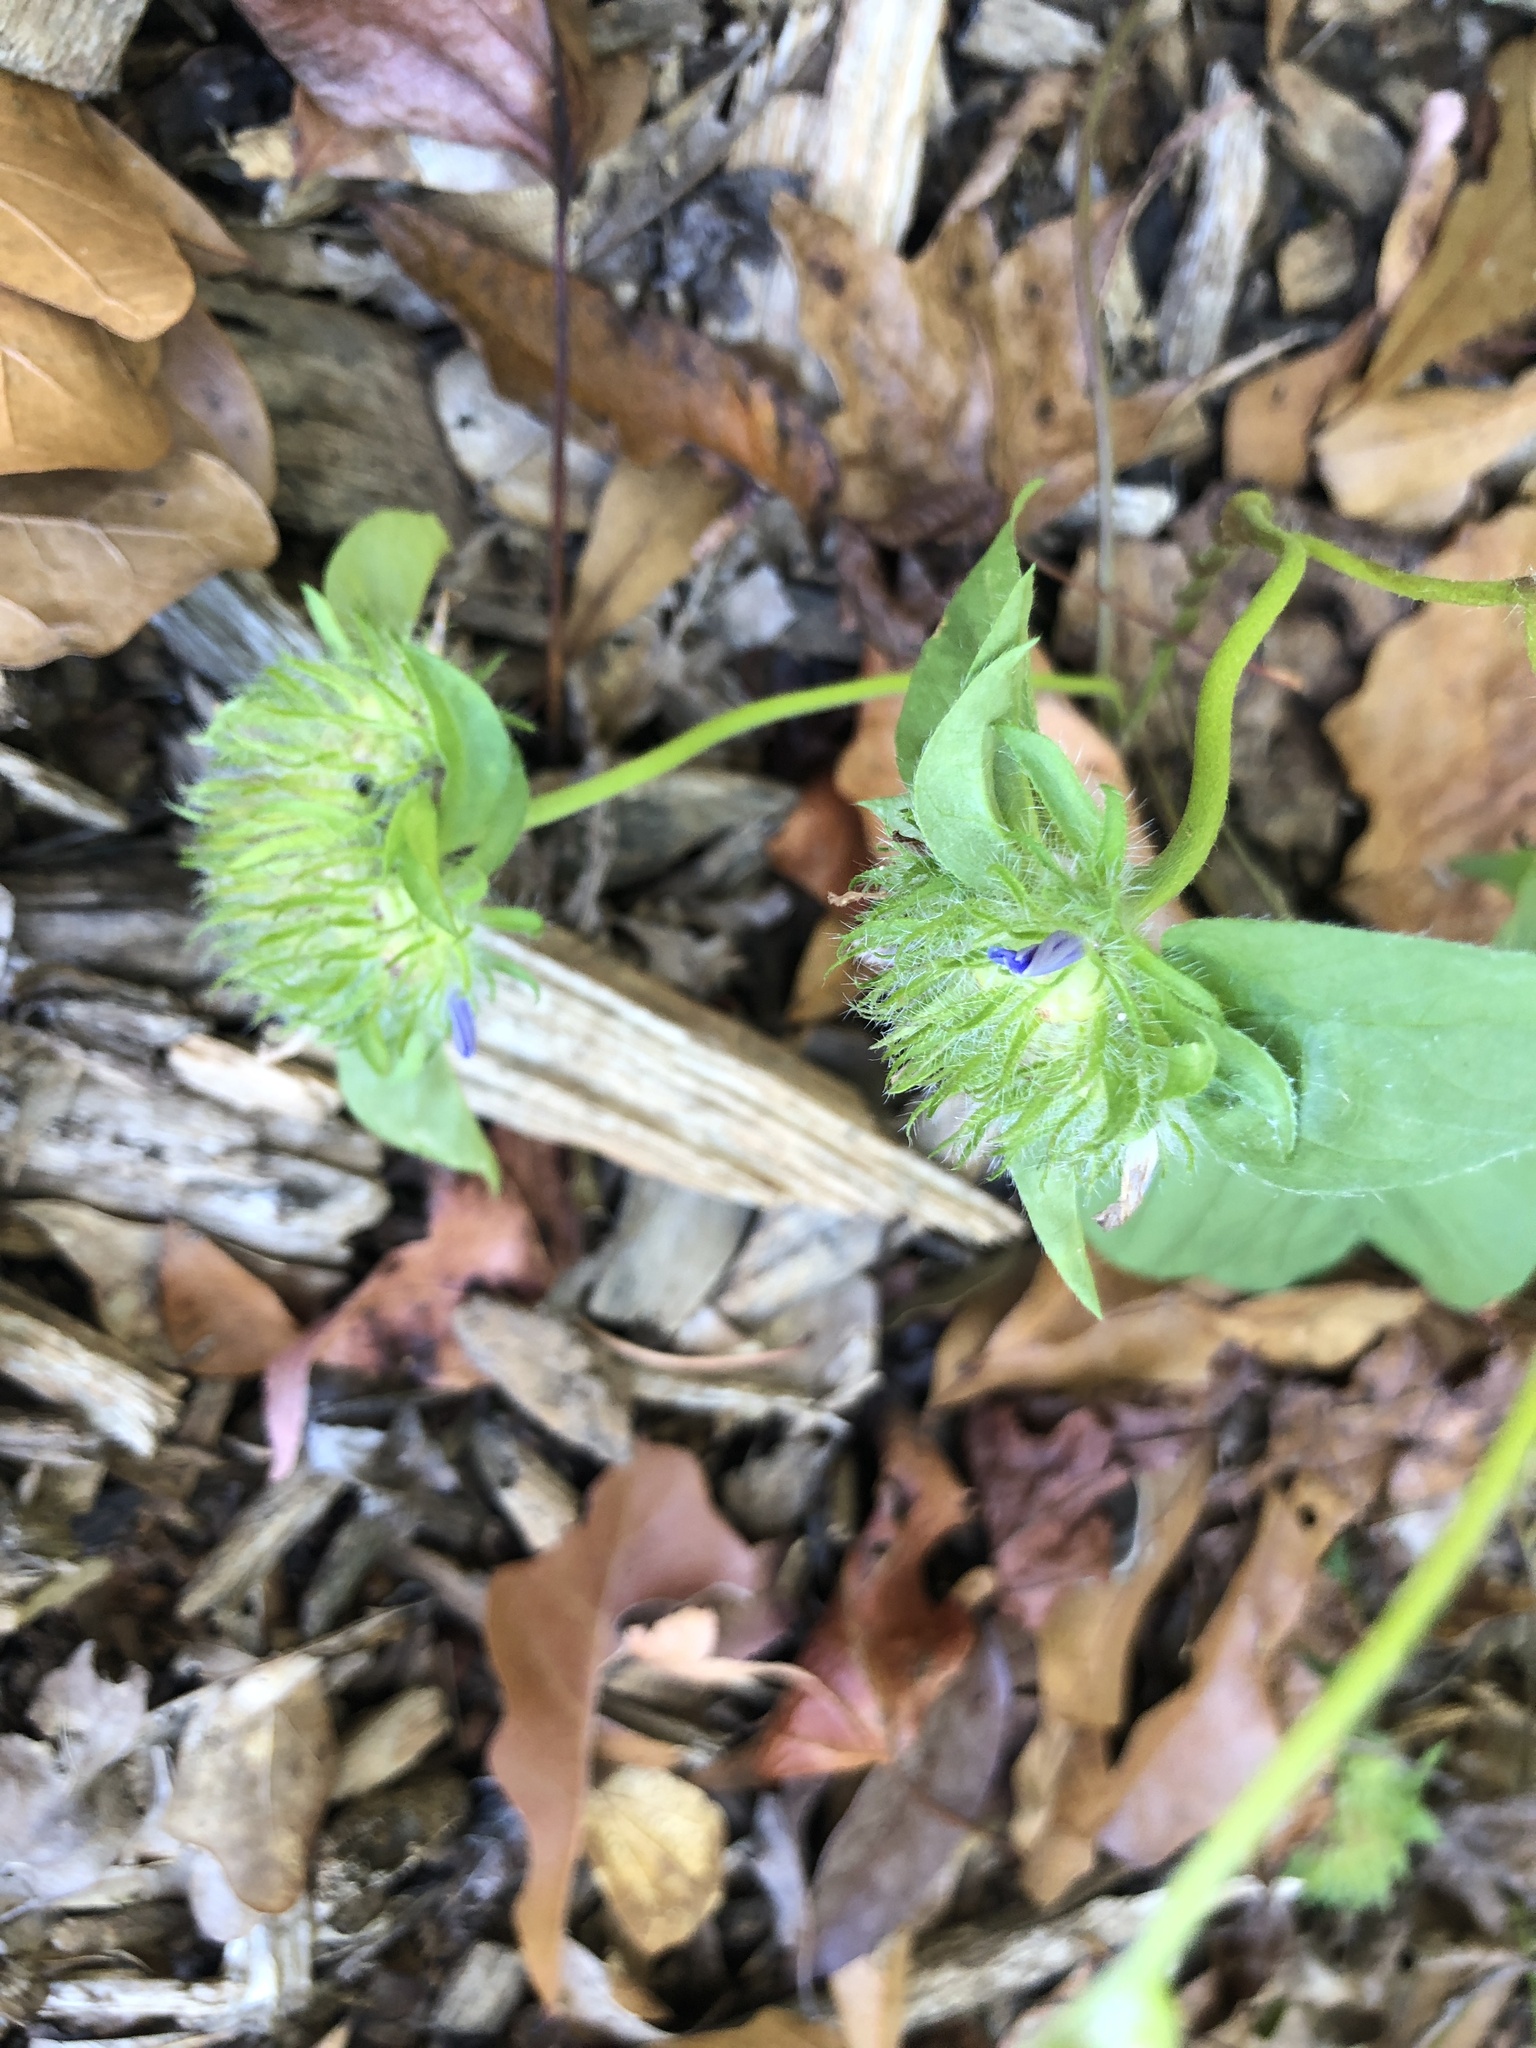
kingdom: Plantae
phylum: Tracheophyta
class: Magnoliopsida
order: Solanales
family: Convolvulaceae
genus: Jacquemontia
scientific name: Jacquemontia tamnifolia
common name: Hairy clustervine
